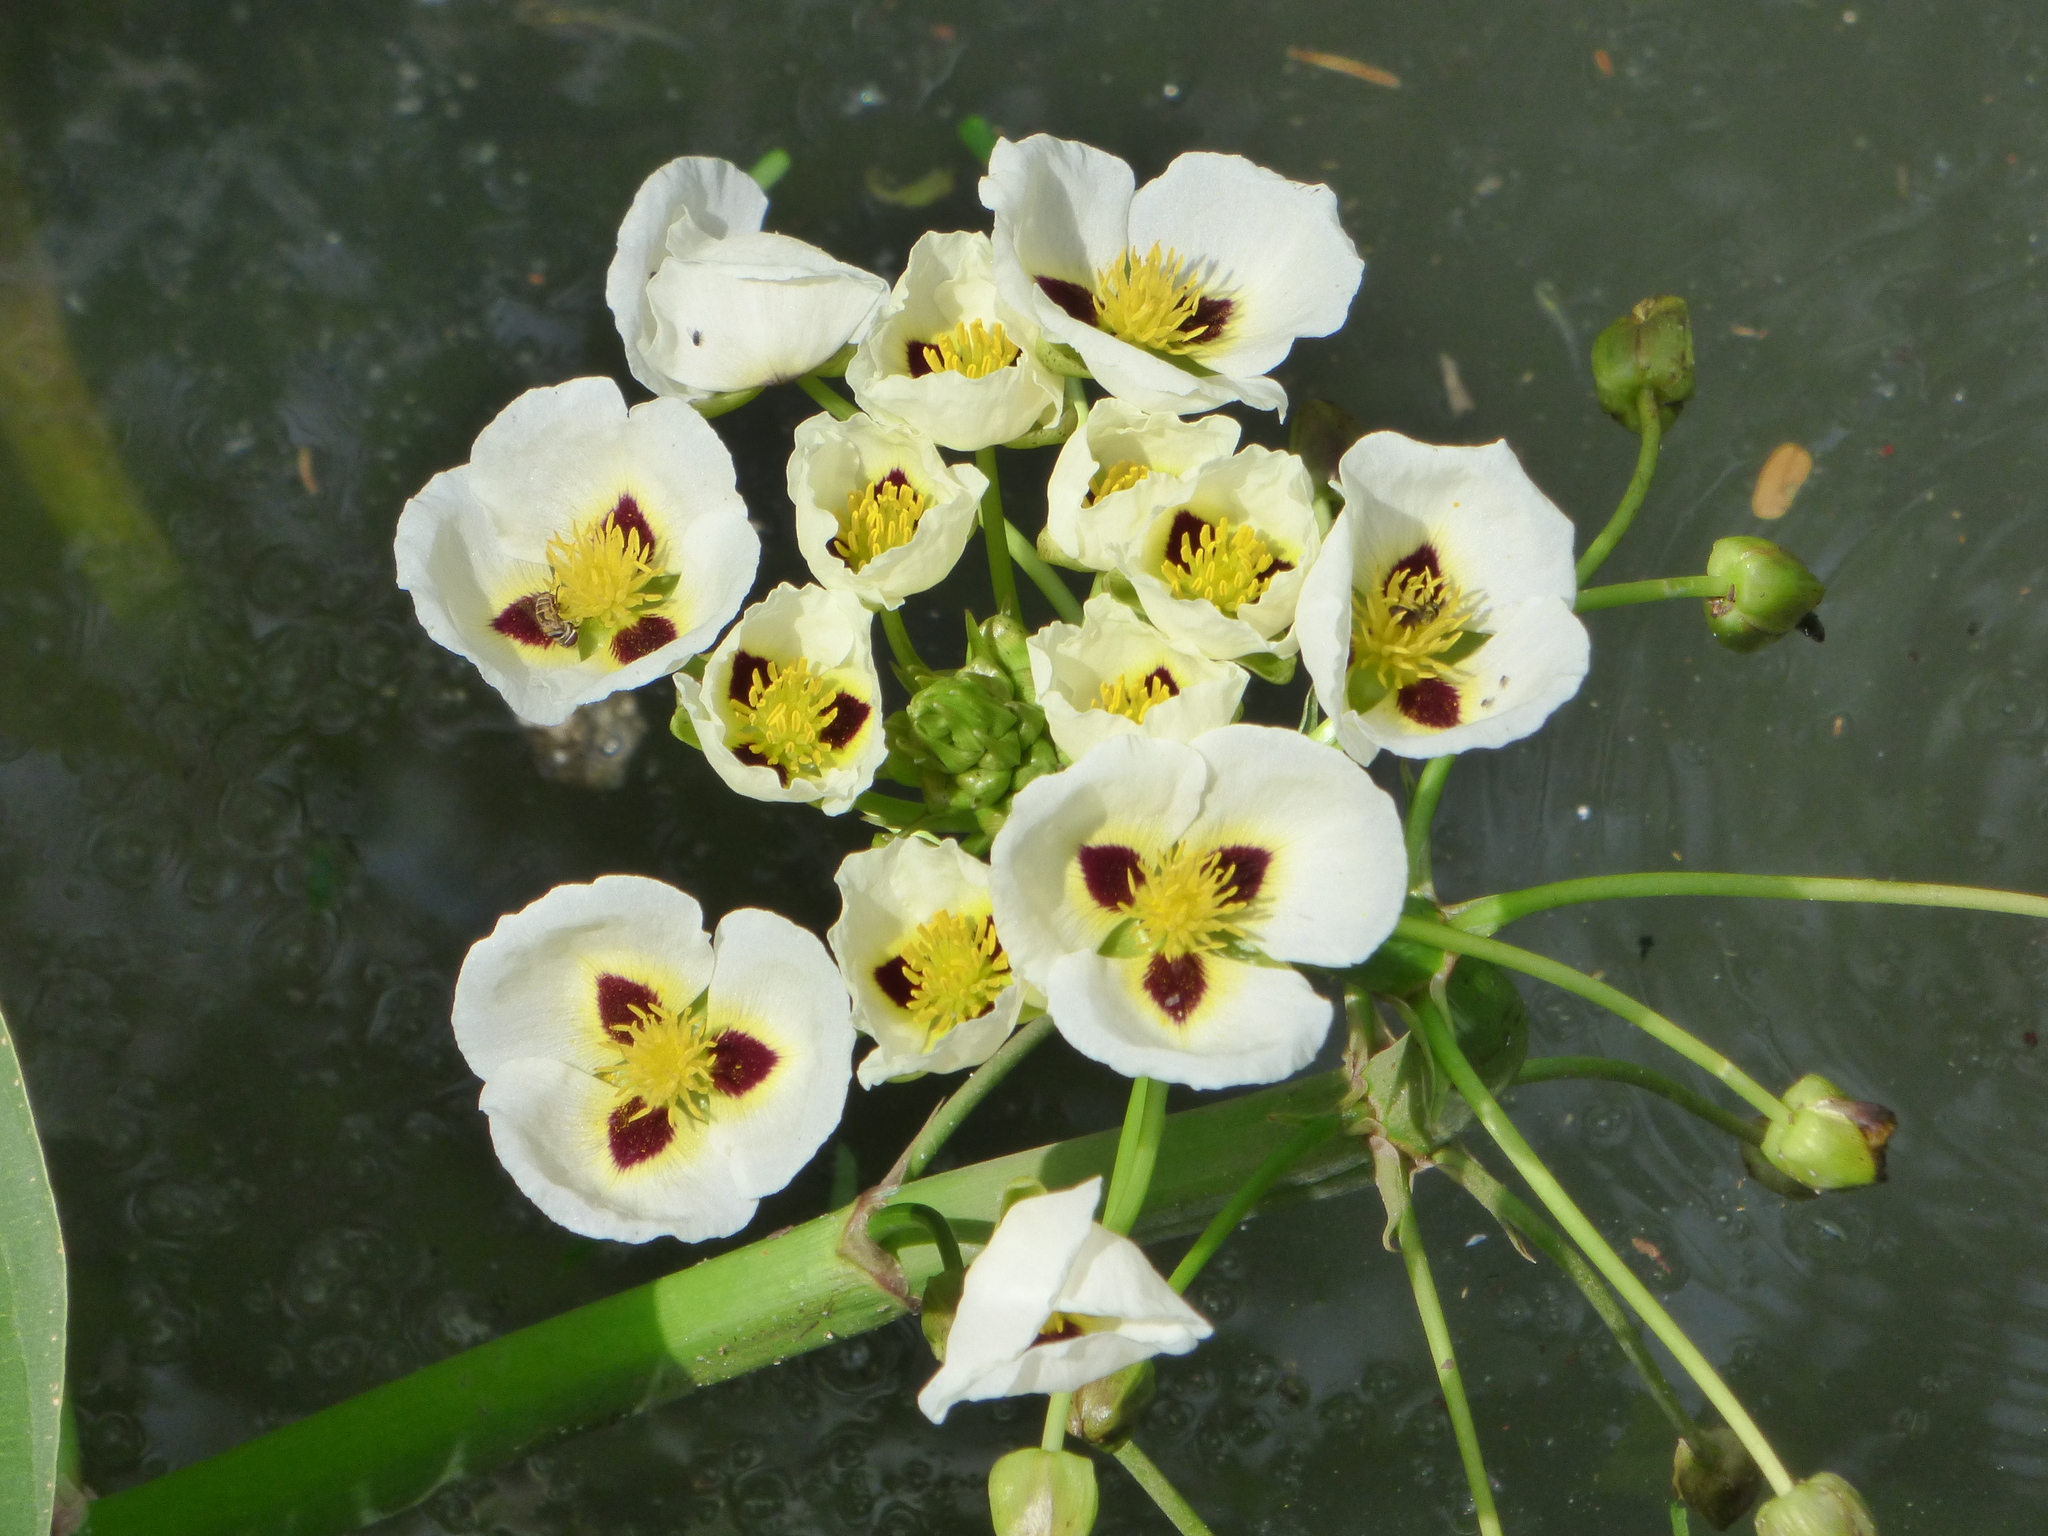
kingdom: Plantae
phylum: Tracheophyta
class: Liliopsida
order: Alismatales
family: Alismataceae
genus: Sagittaria
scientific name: Sagittaria montevidensis
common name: Giant arrowhead
